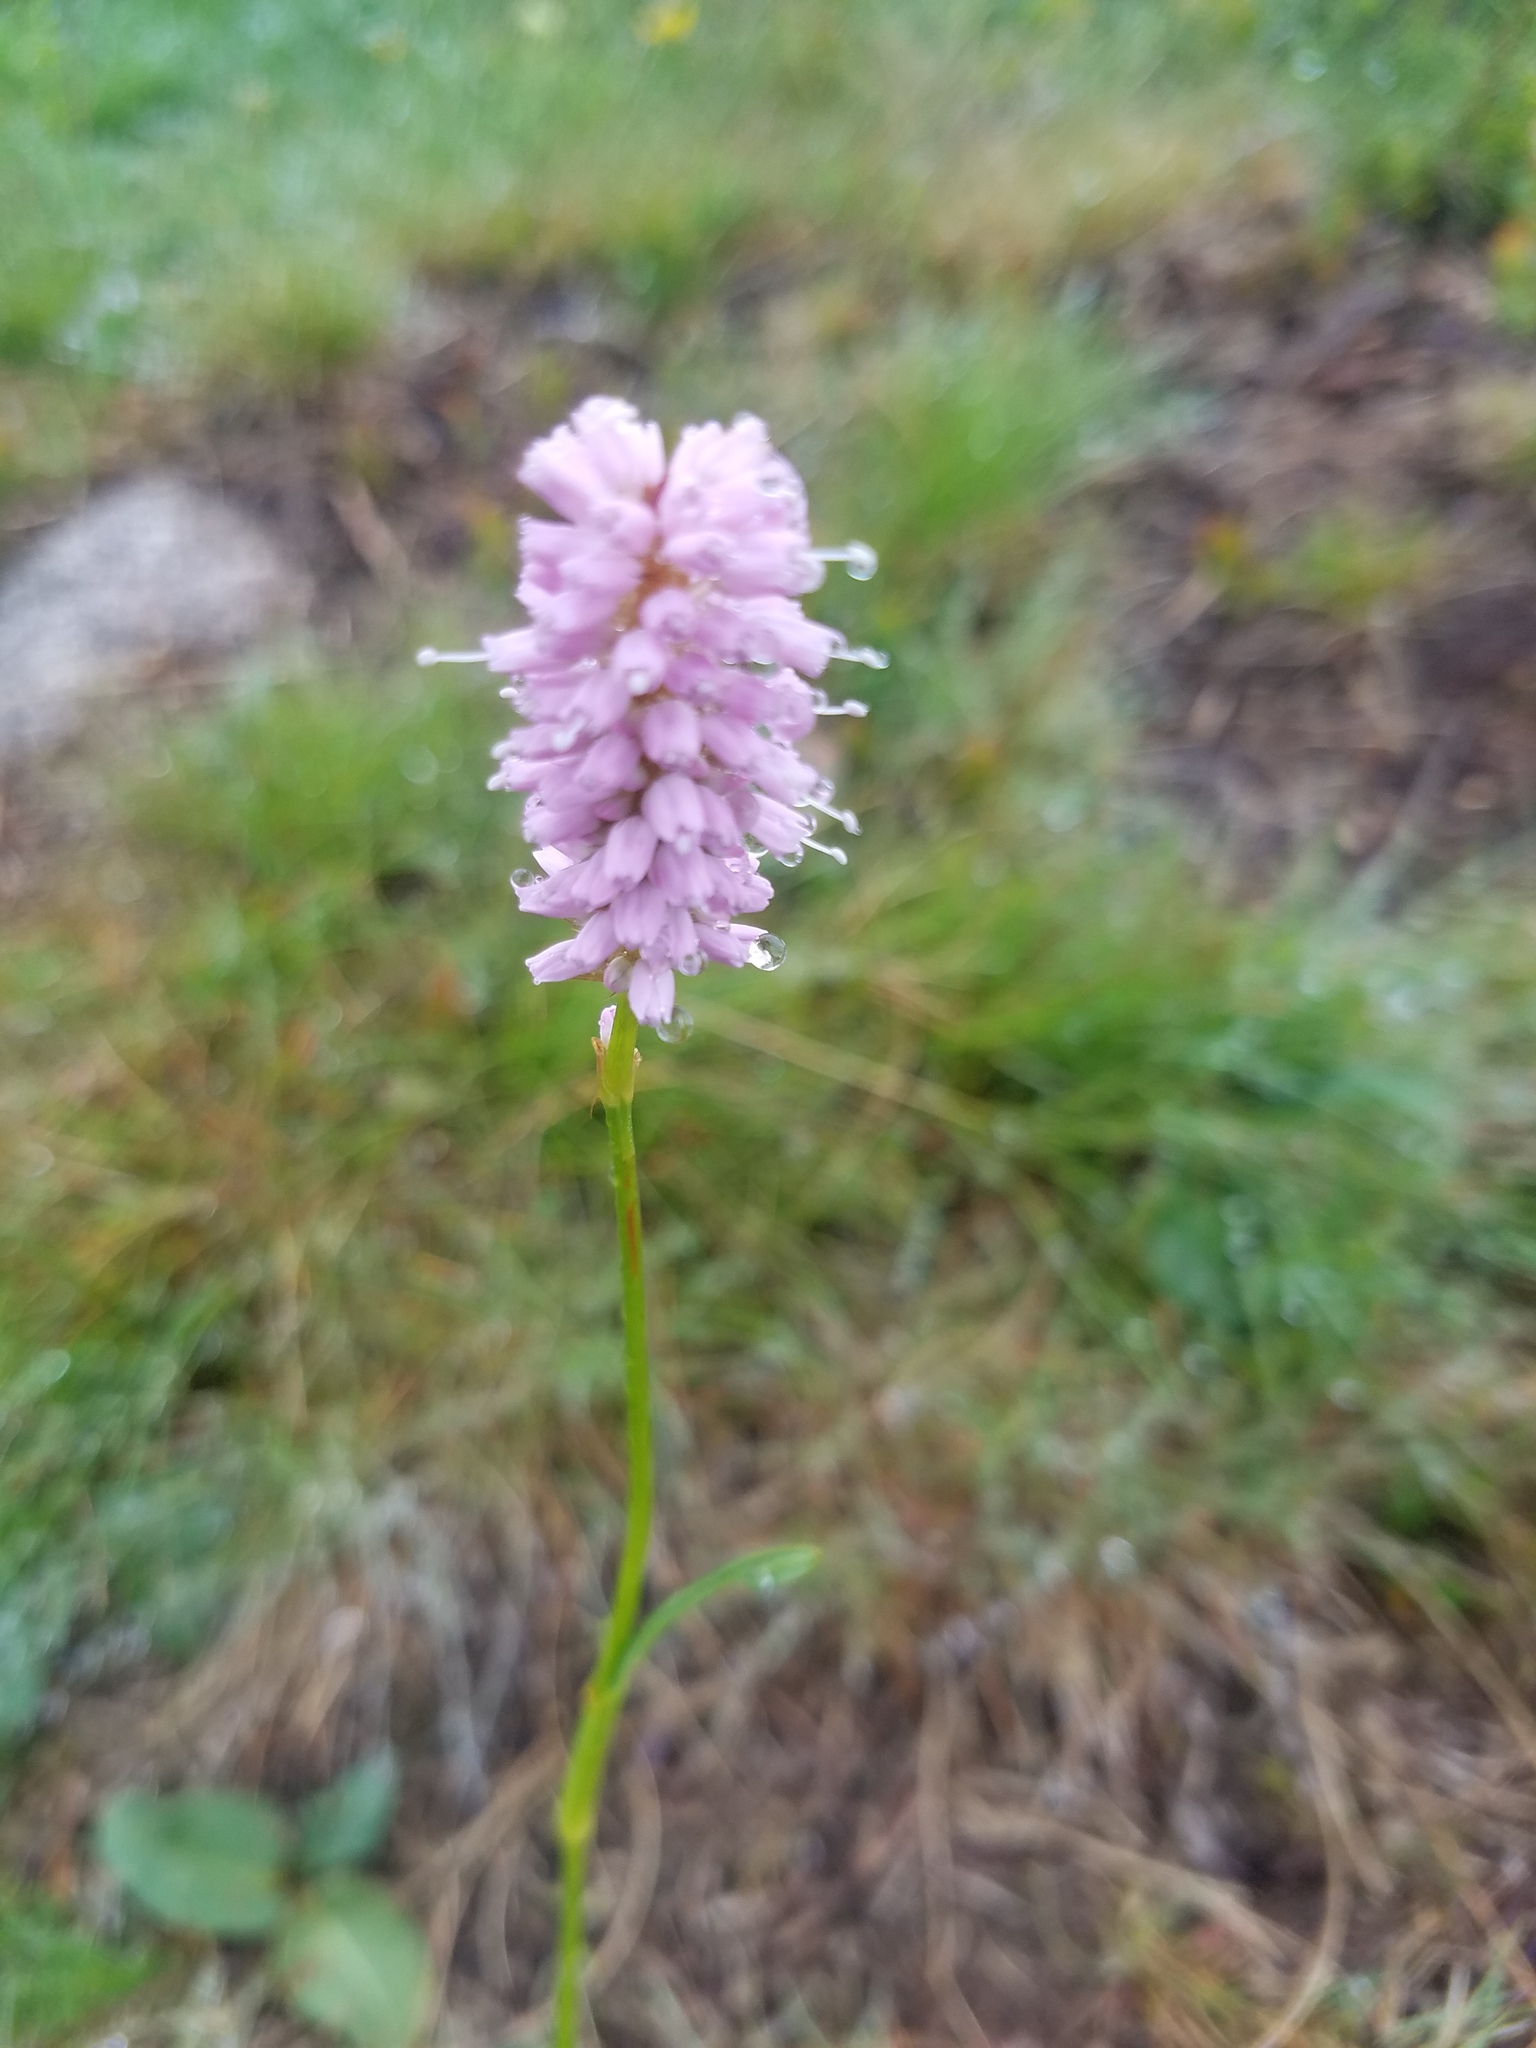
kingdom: Plantae
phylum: Tracheophyta
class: Magnoliopsida
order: Caryophyllales
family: Polygonaceae
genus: Bistorta
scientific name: Bistorta officinalis
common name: Common bistort
